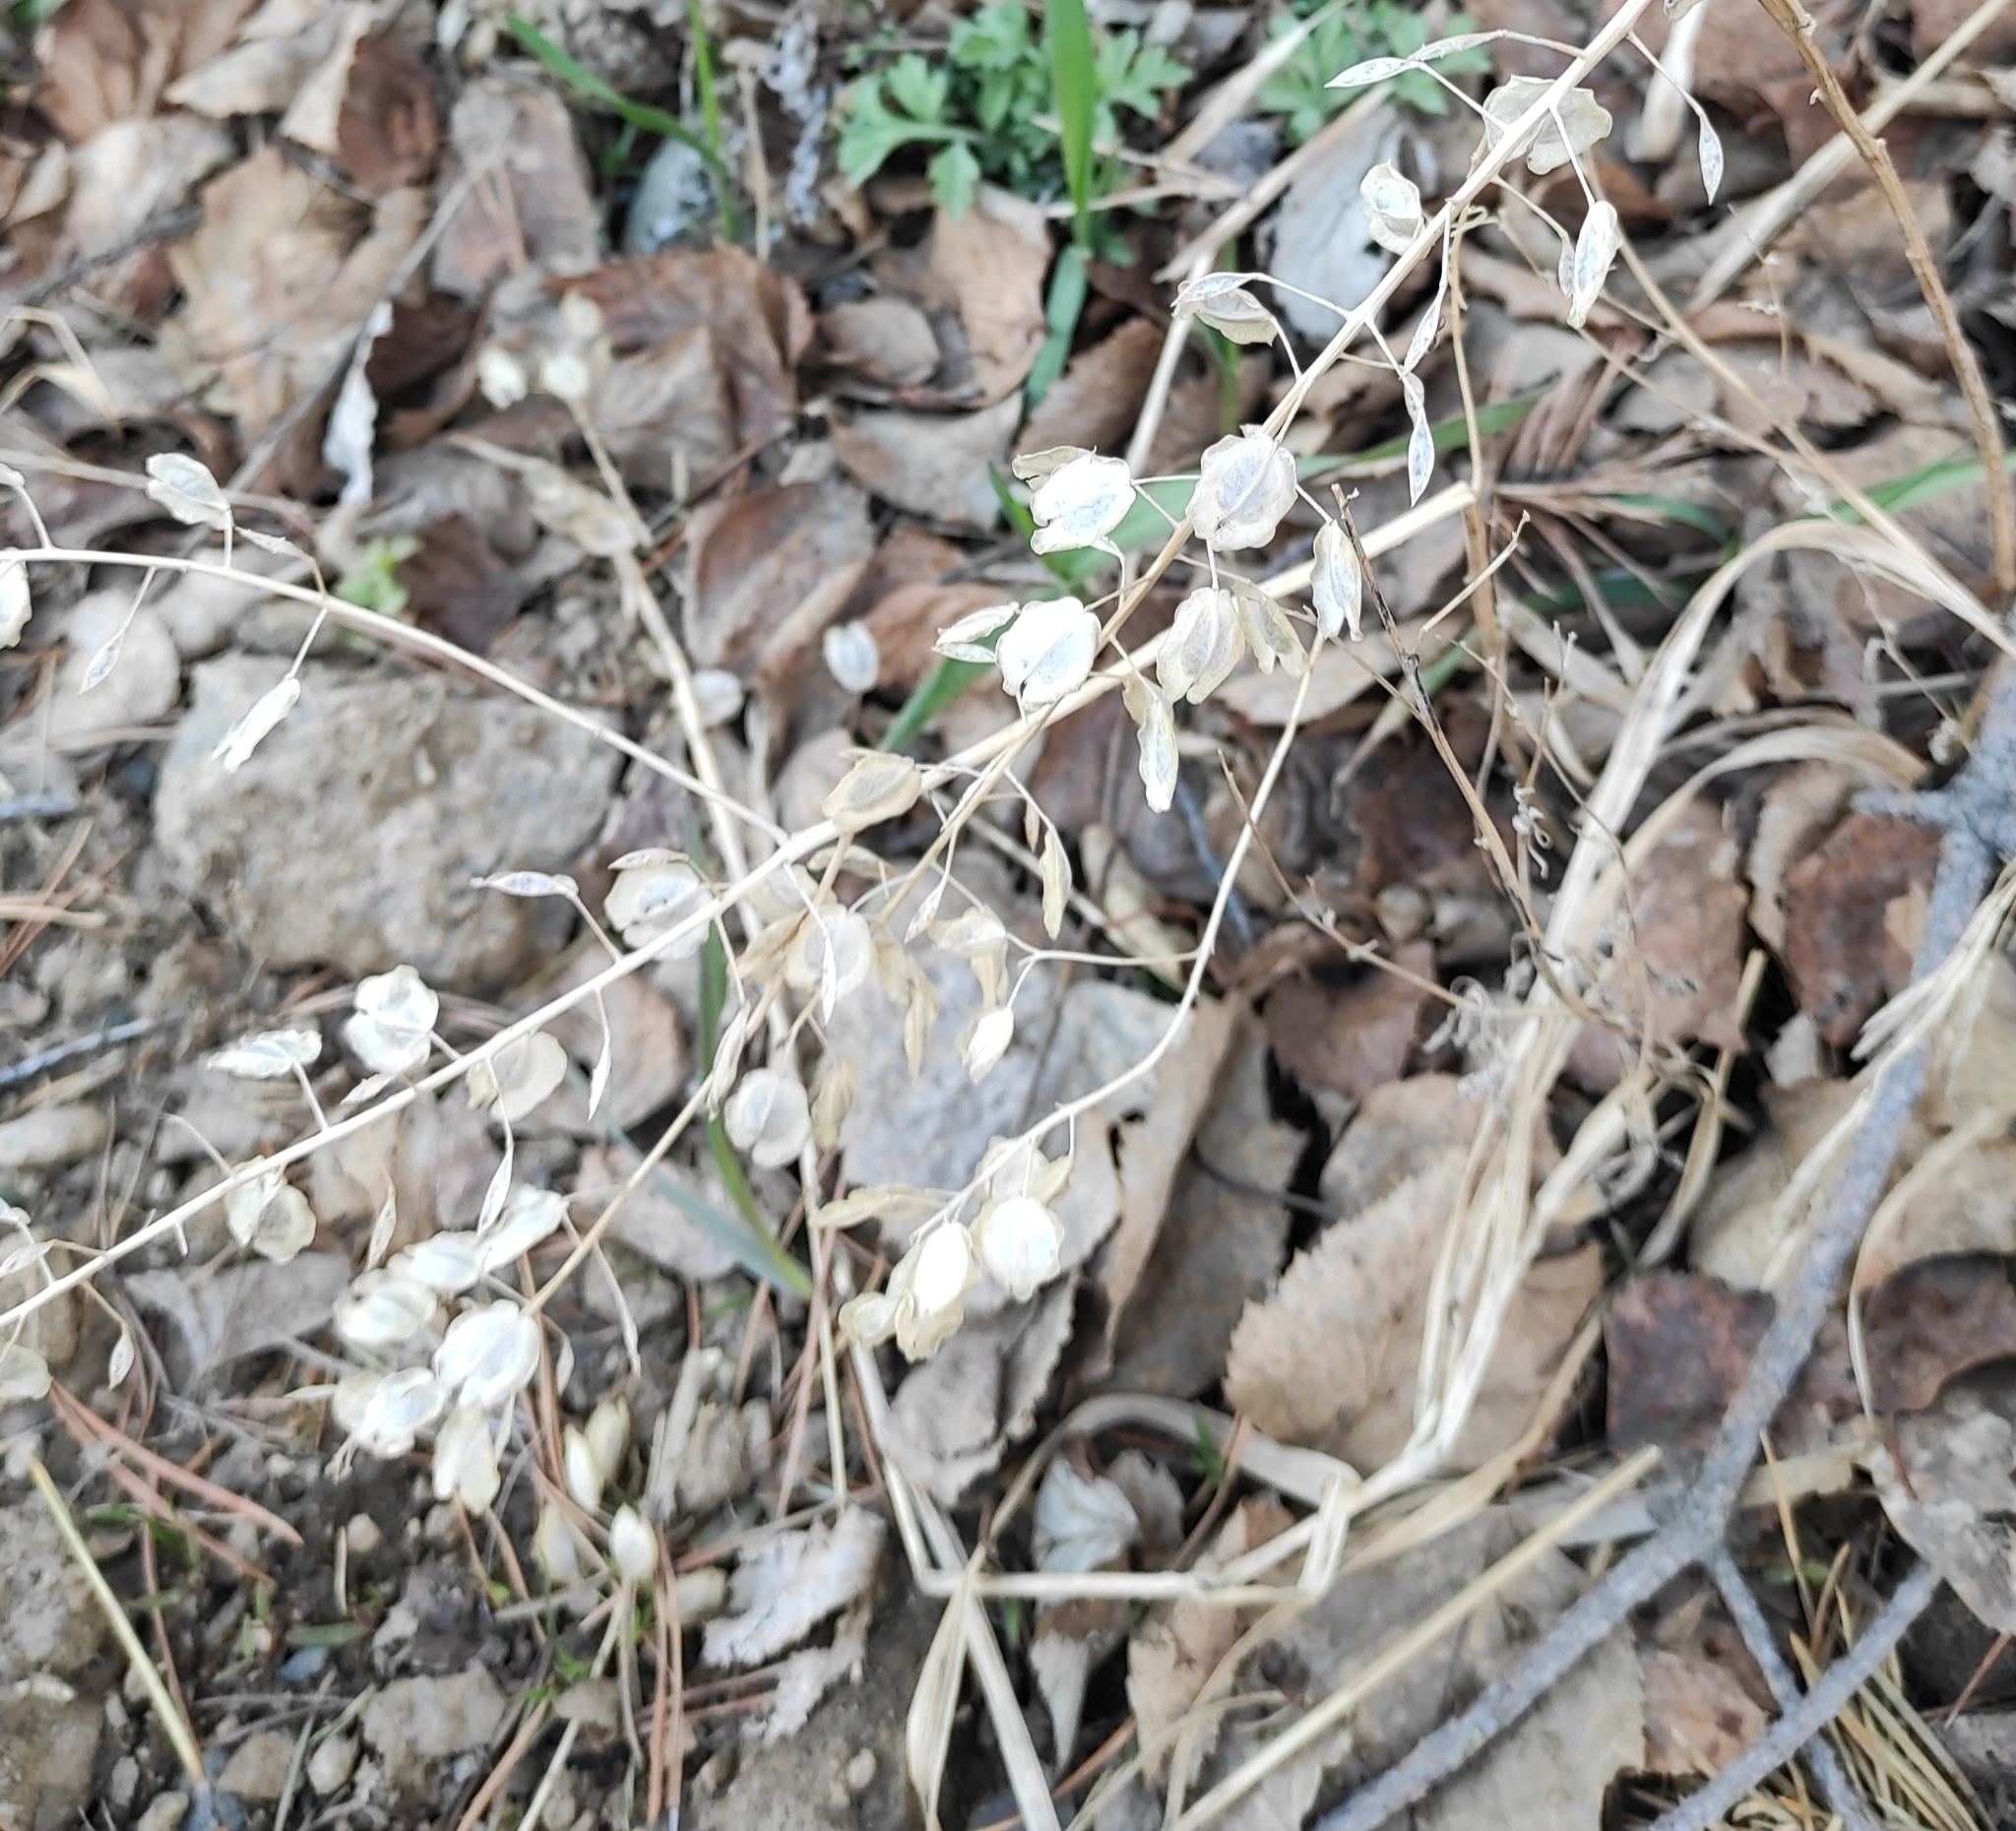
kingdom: Plantae
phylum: Tracheophyta
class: Magnoliopsida
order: Brassicales
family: Brassicaceae
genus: Thlaspi
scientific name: Thlaspi arvense
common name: Field pennycress
